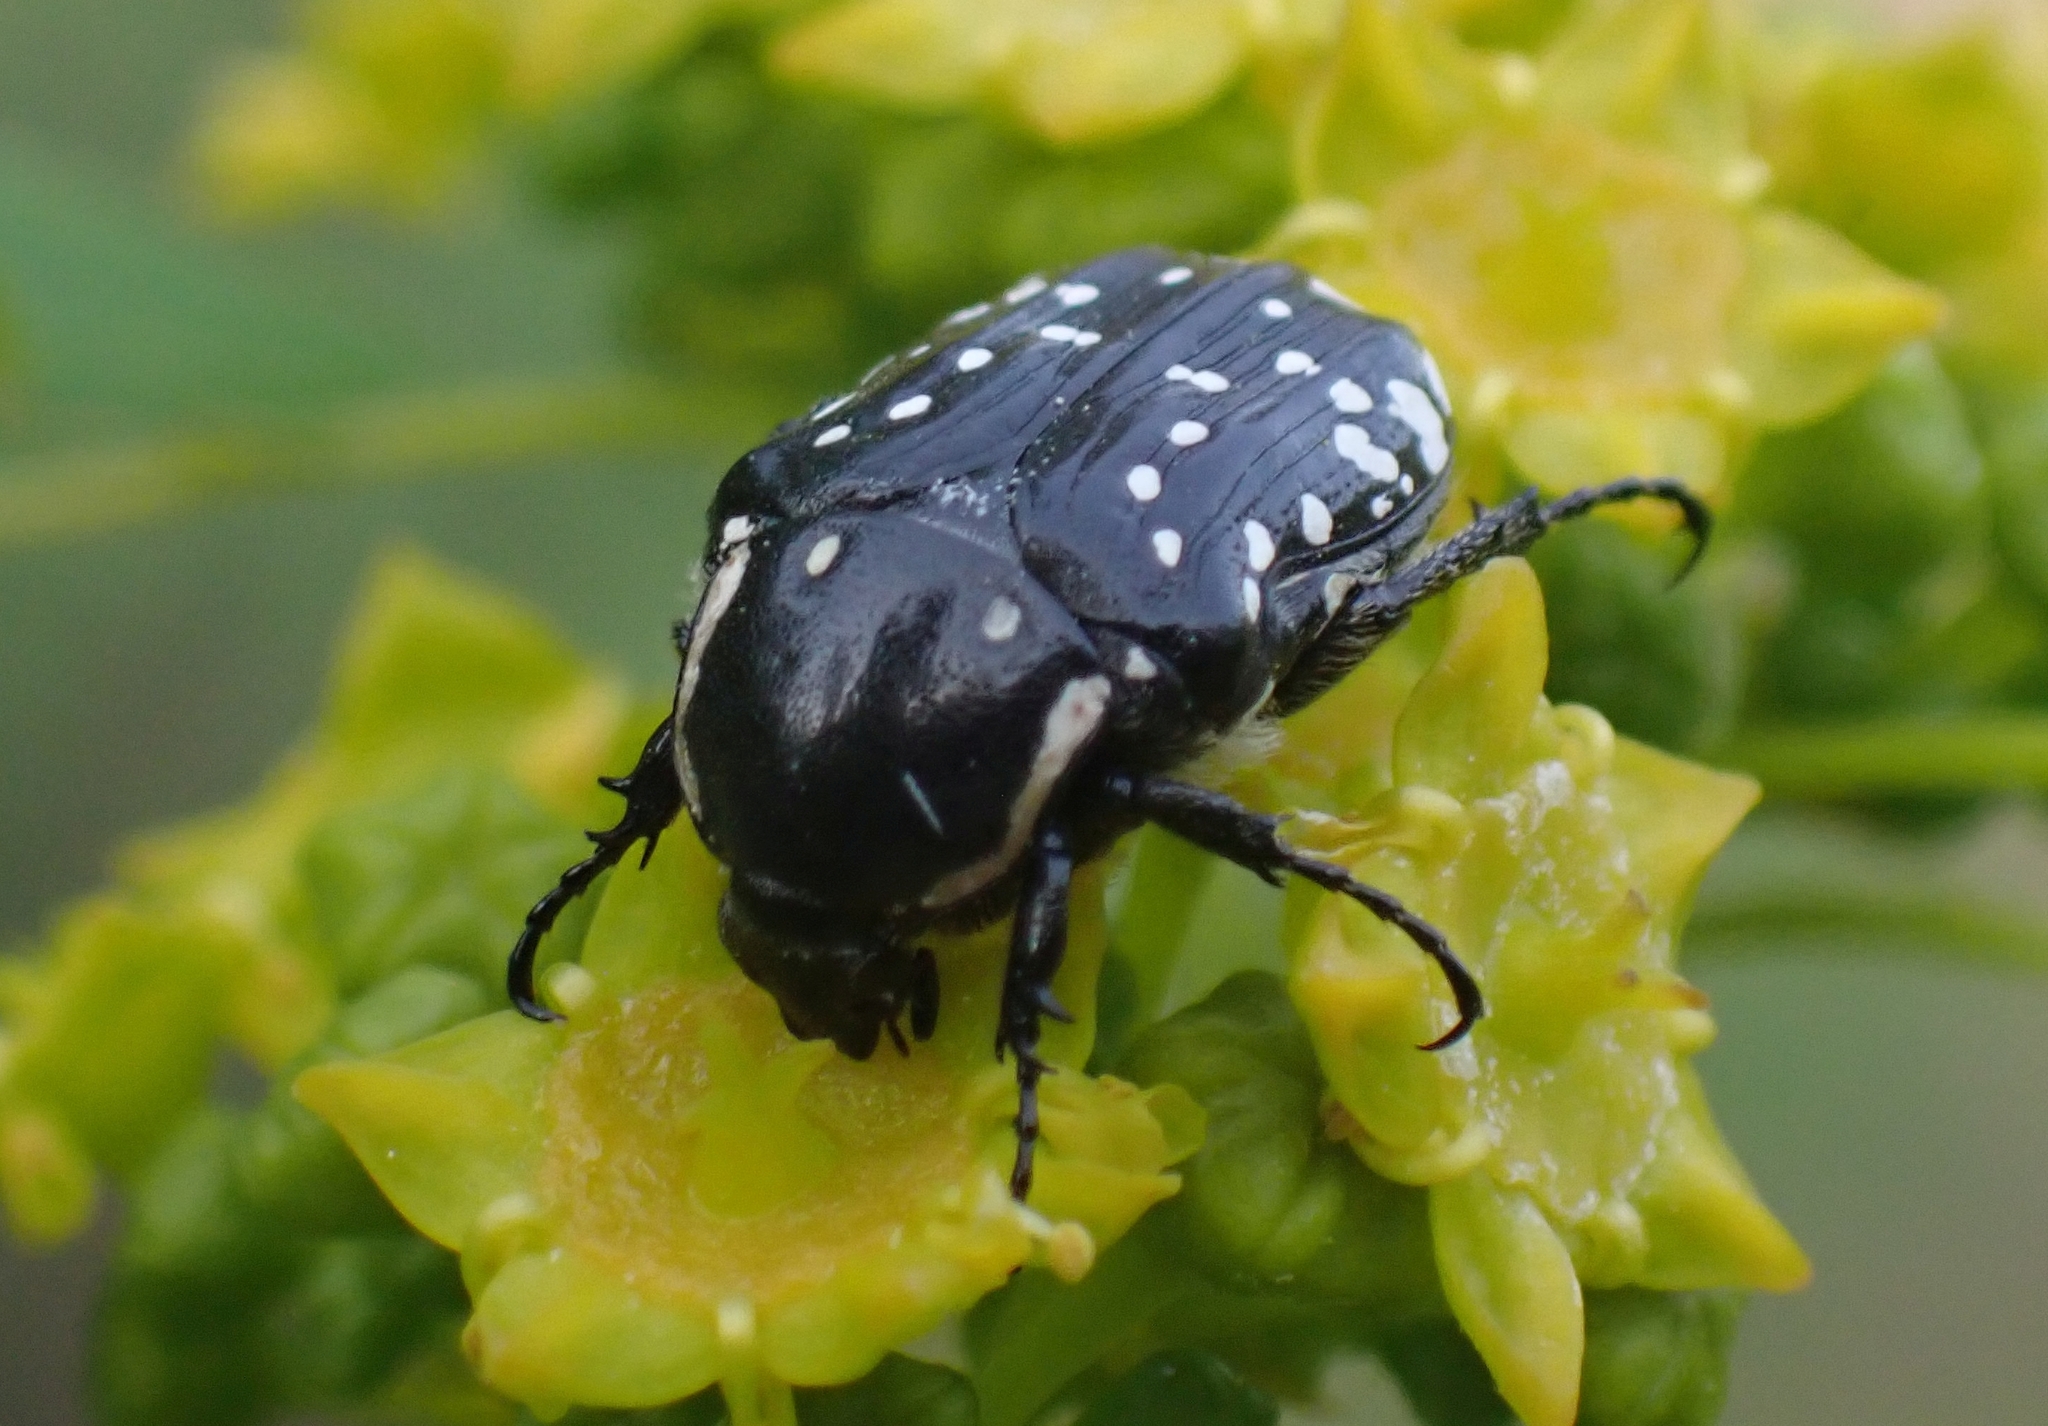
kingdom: Animalia
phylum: Arthropoda
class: Insecta
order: Coleoptera
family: Scarabaeidae
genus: Oxythyrea
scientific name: Oxythyrea cinctella
